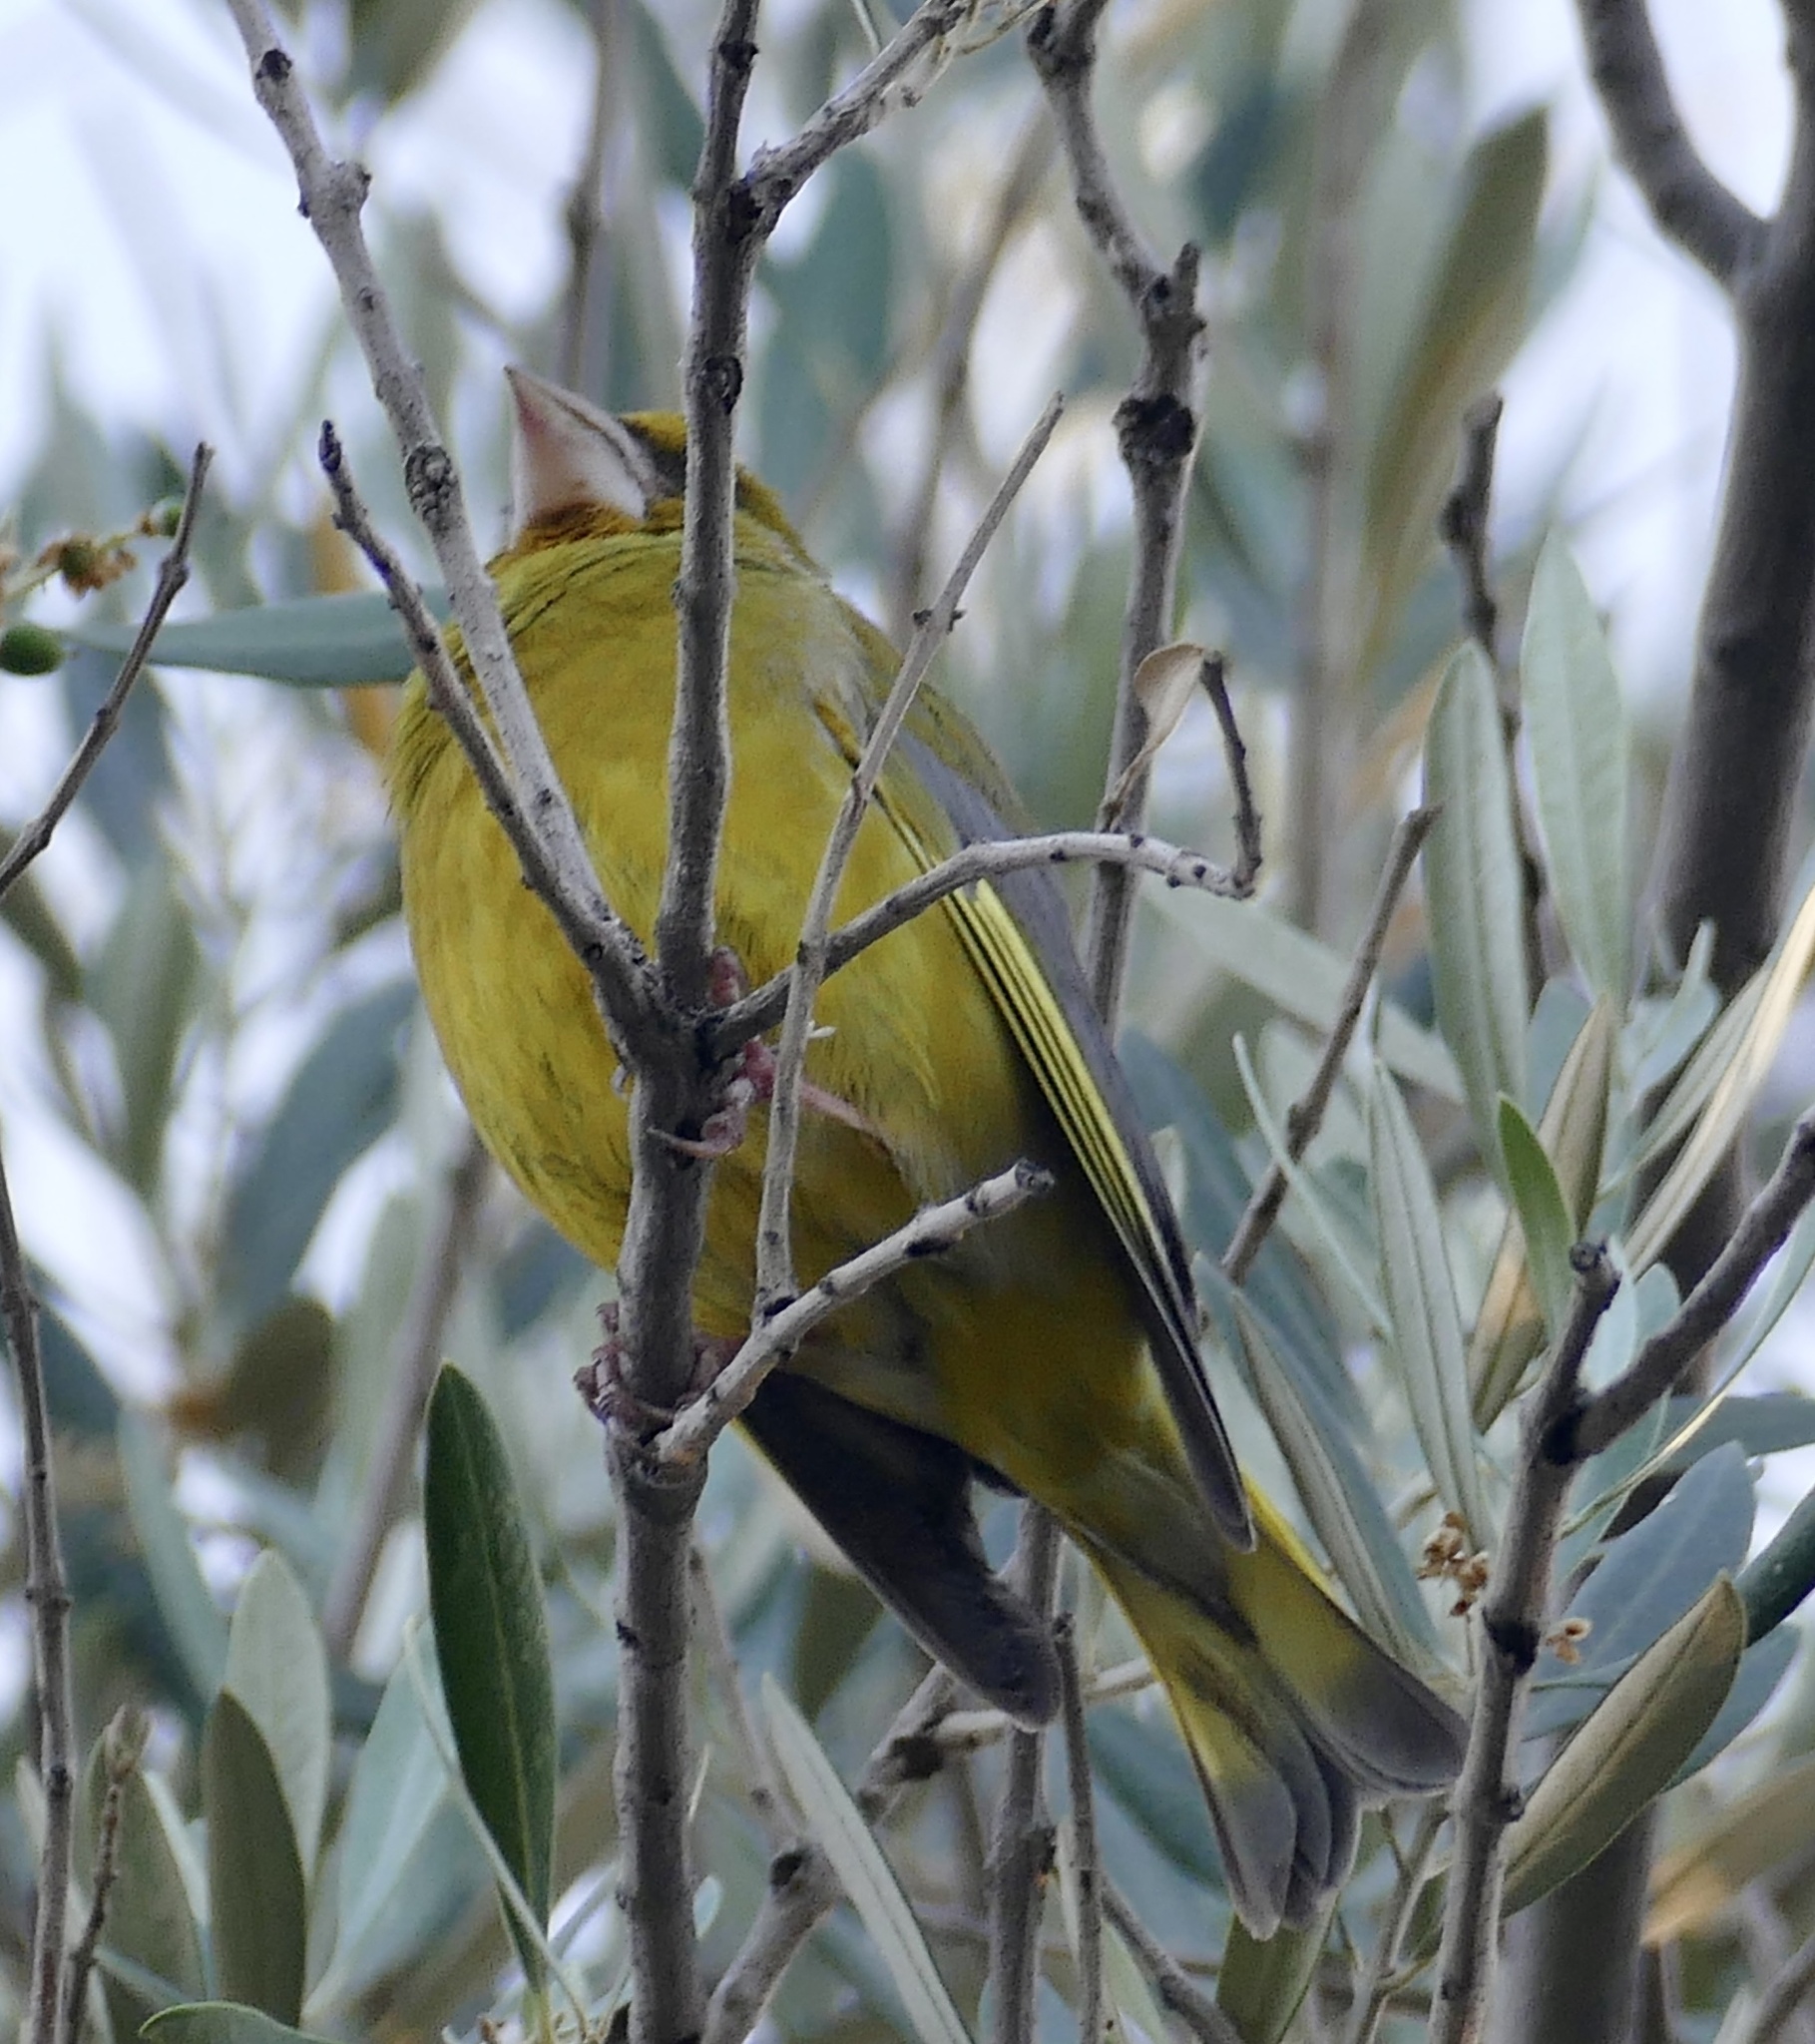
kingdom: Plantae
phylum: Tracheophyta
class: Liliopsida
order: Poales
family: Poaceae
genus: Chloris
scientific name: Chloris chloris
